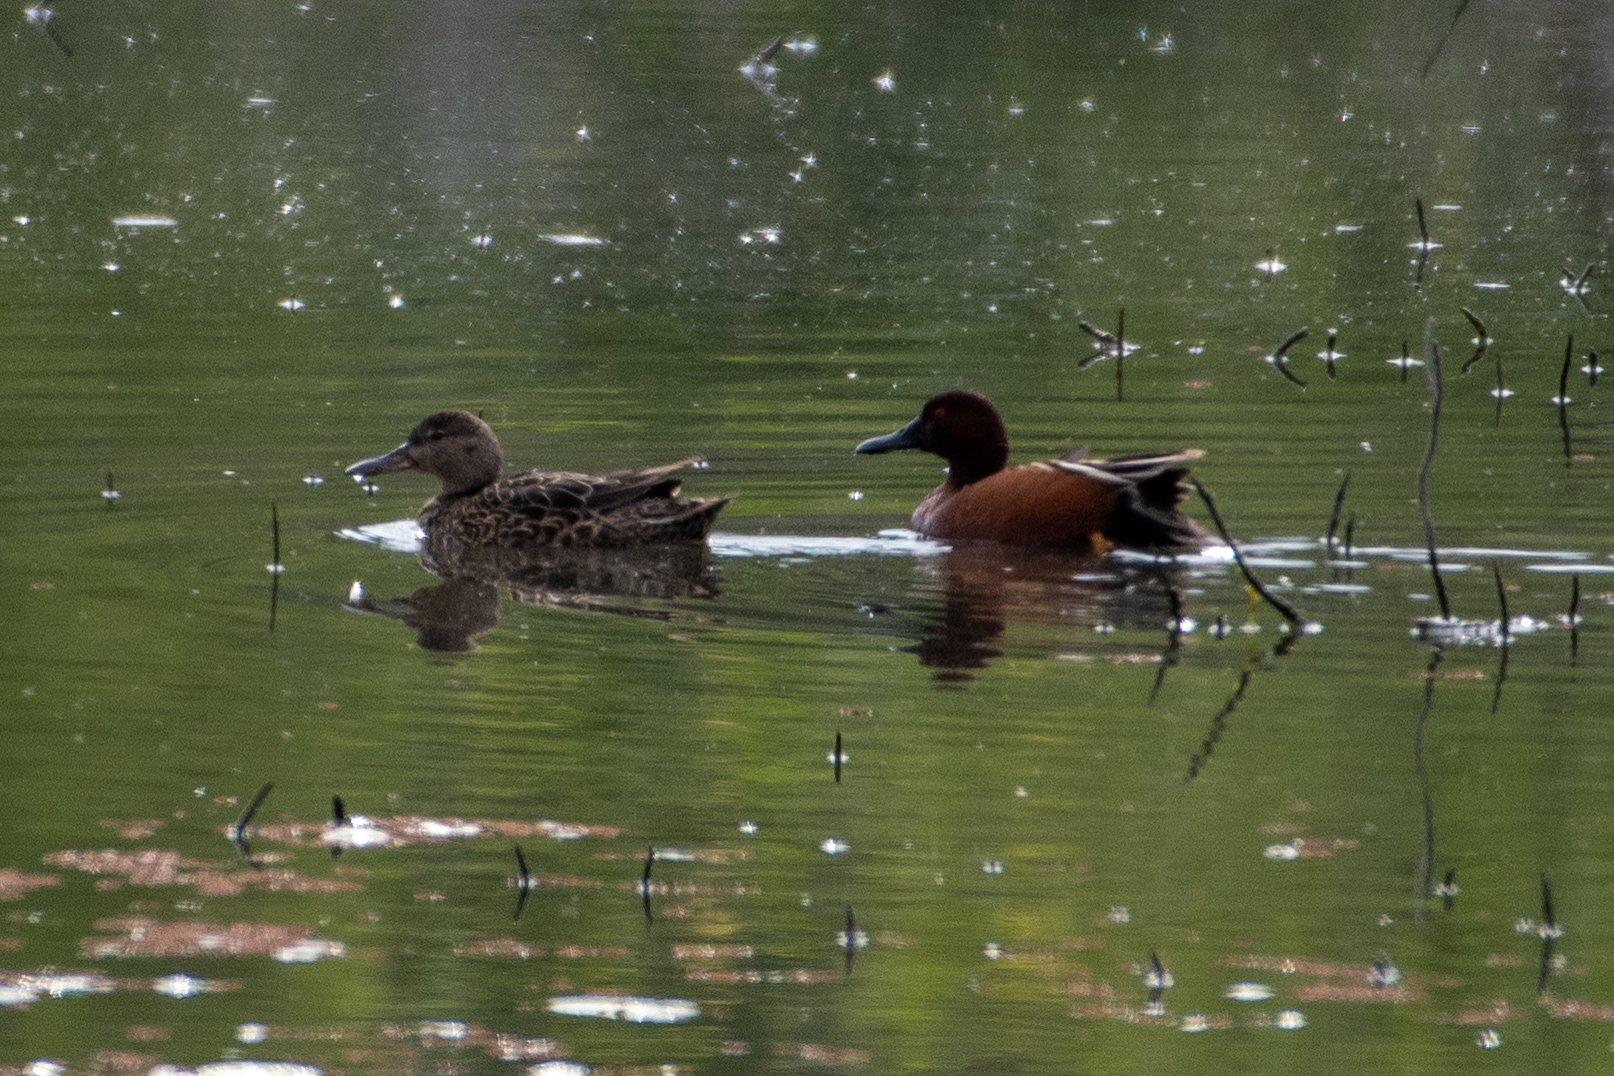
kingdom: Animalia
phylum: Chordata
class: Aves
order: Anseriformes
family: Anatidae
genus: Spatula
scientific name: Spatula cyanoptera
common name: Cinnamon teal
